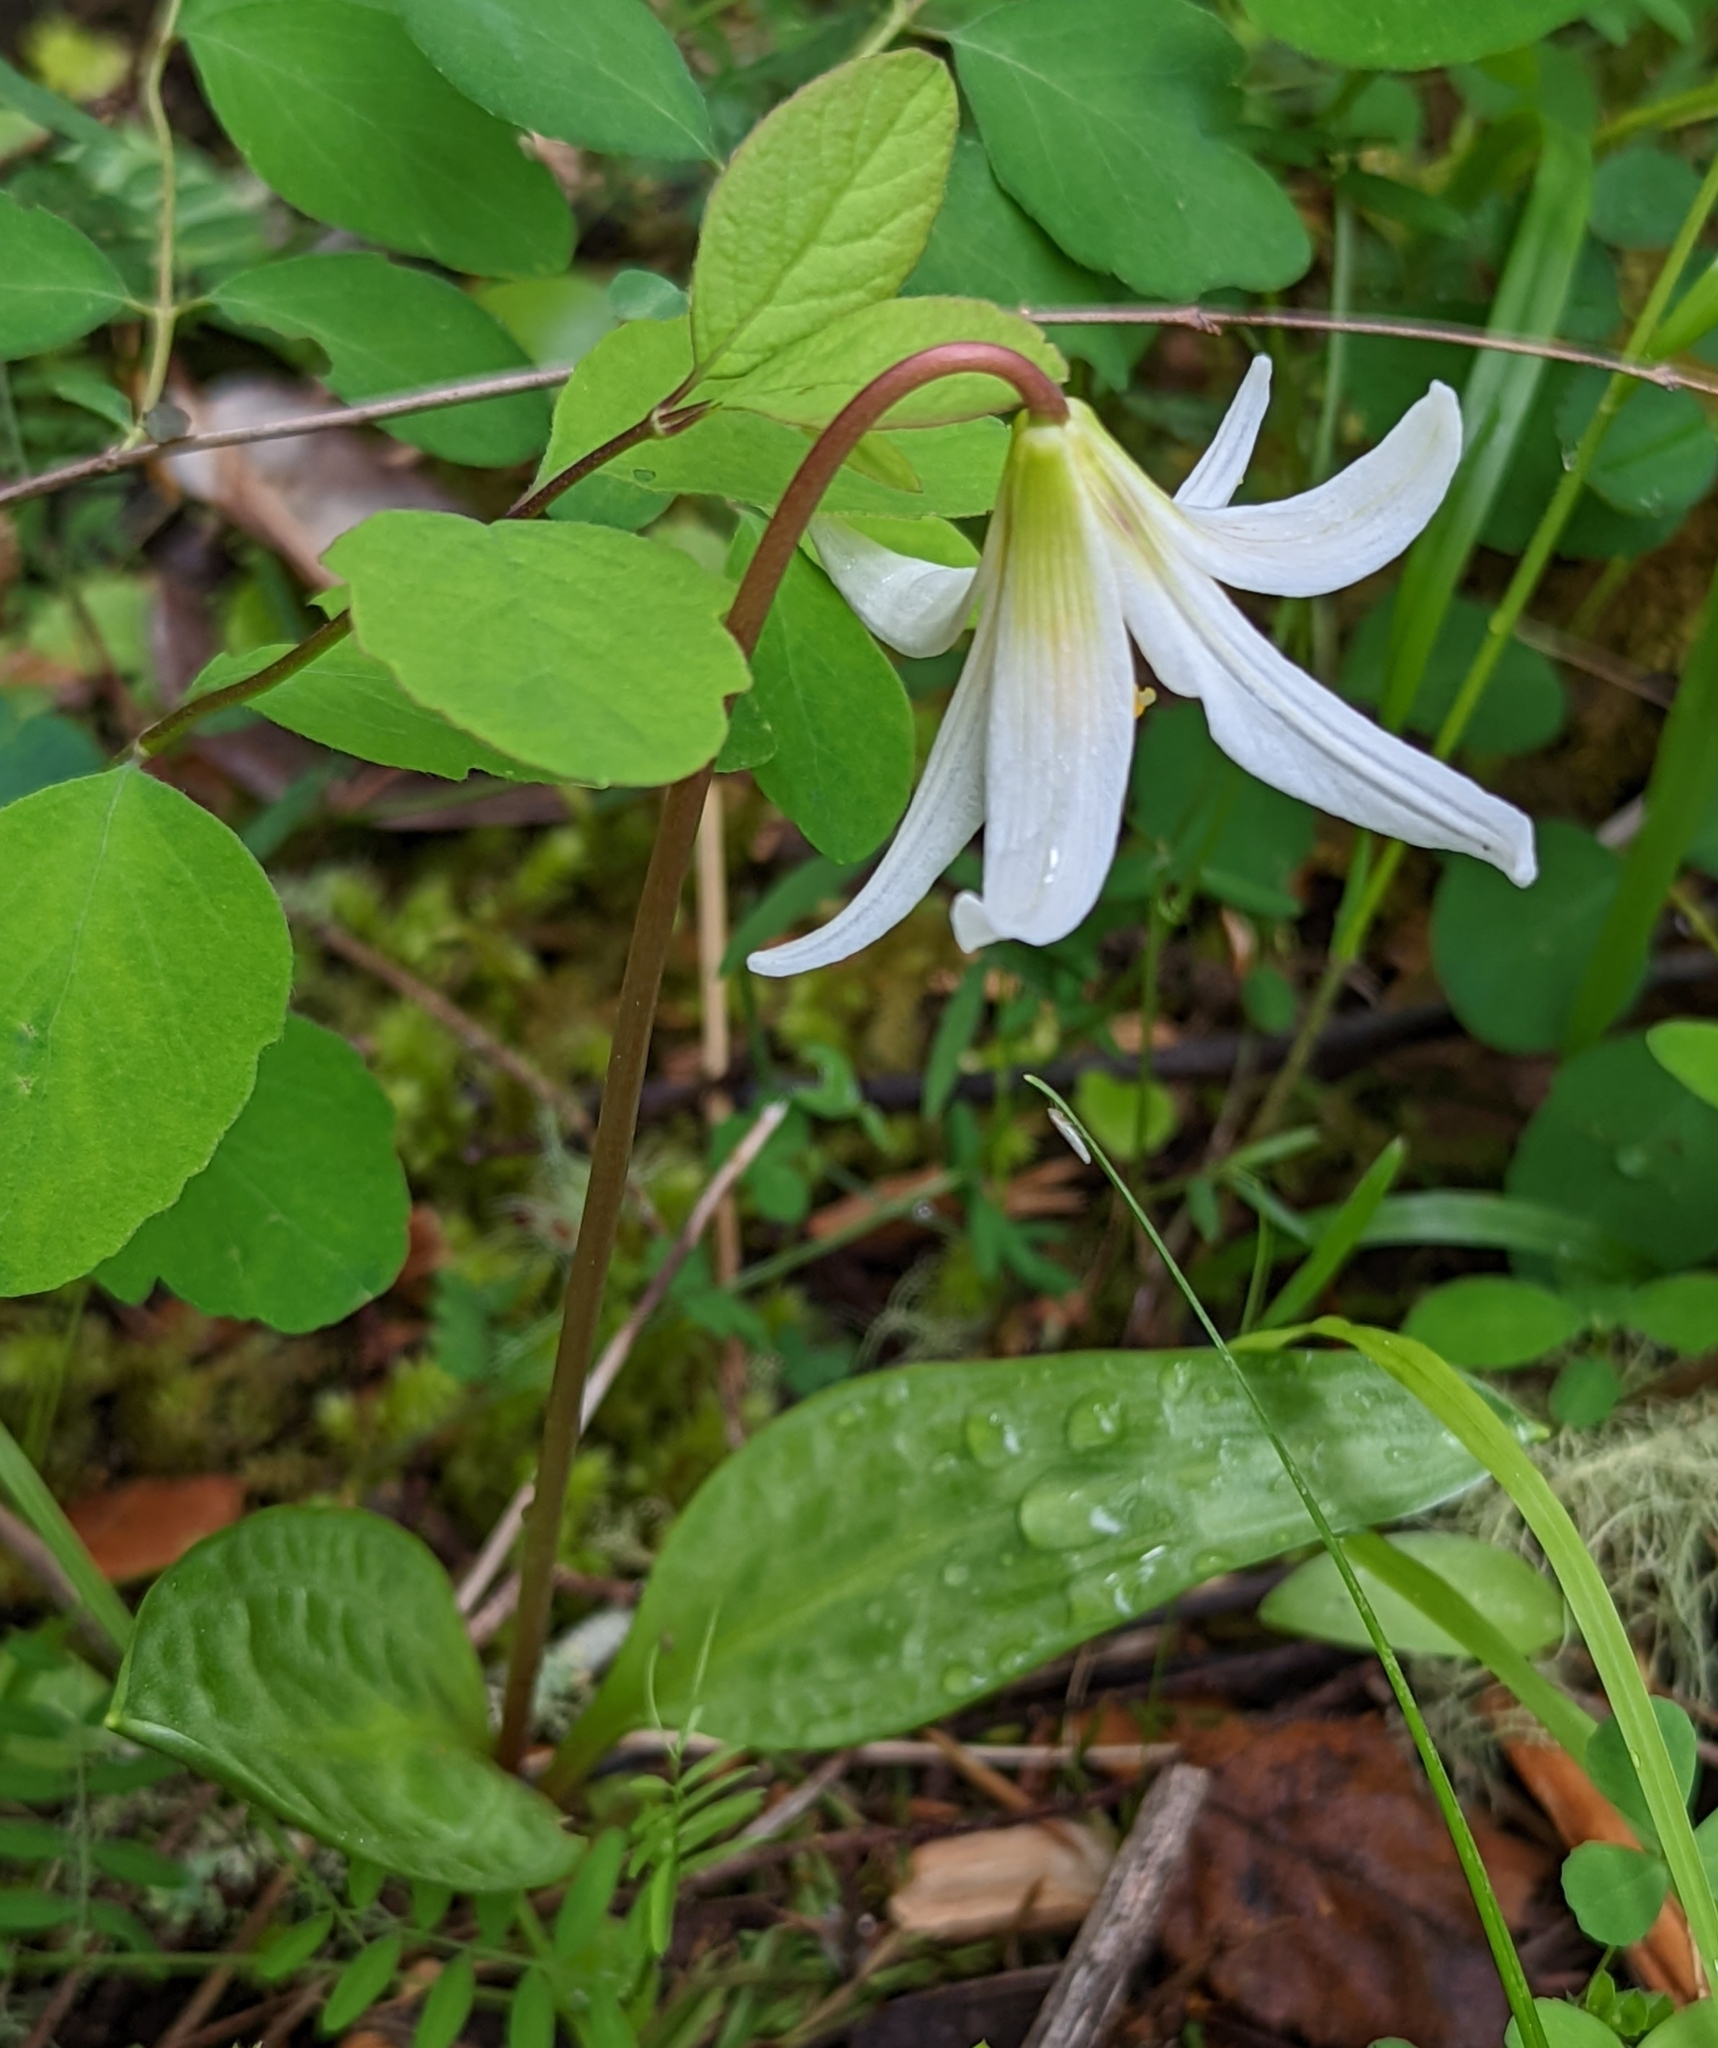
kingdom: Plantae
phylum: Tracheophyta
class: Liliopsida
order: Liliales
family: Liliaceae
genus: Erythronium
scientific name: Erythronium oregonum
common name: Giant adder's-tongue
